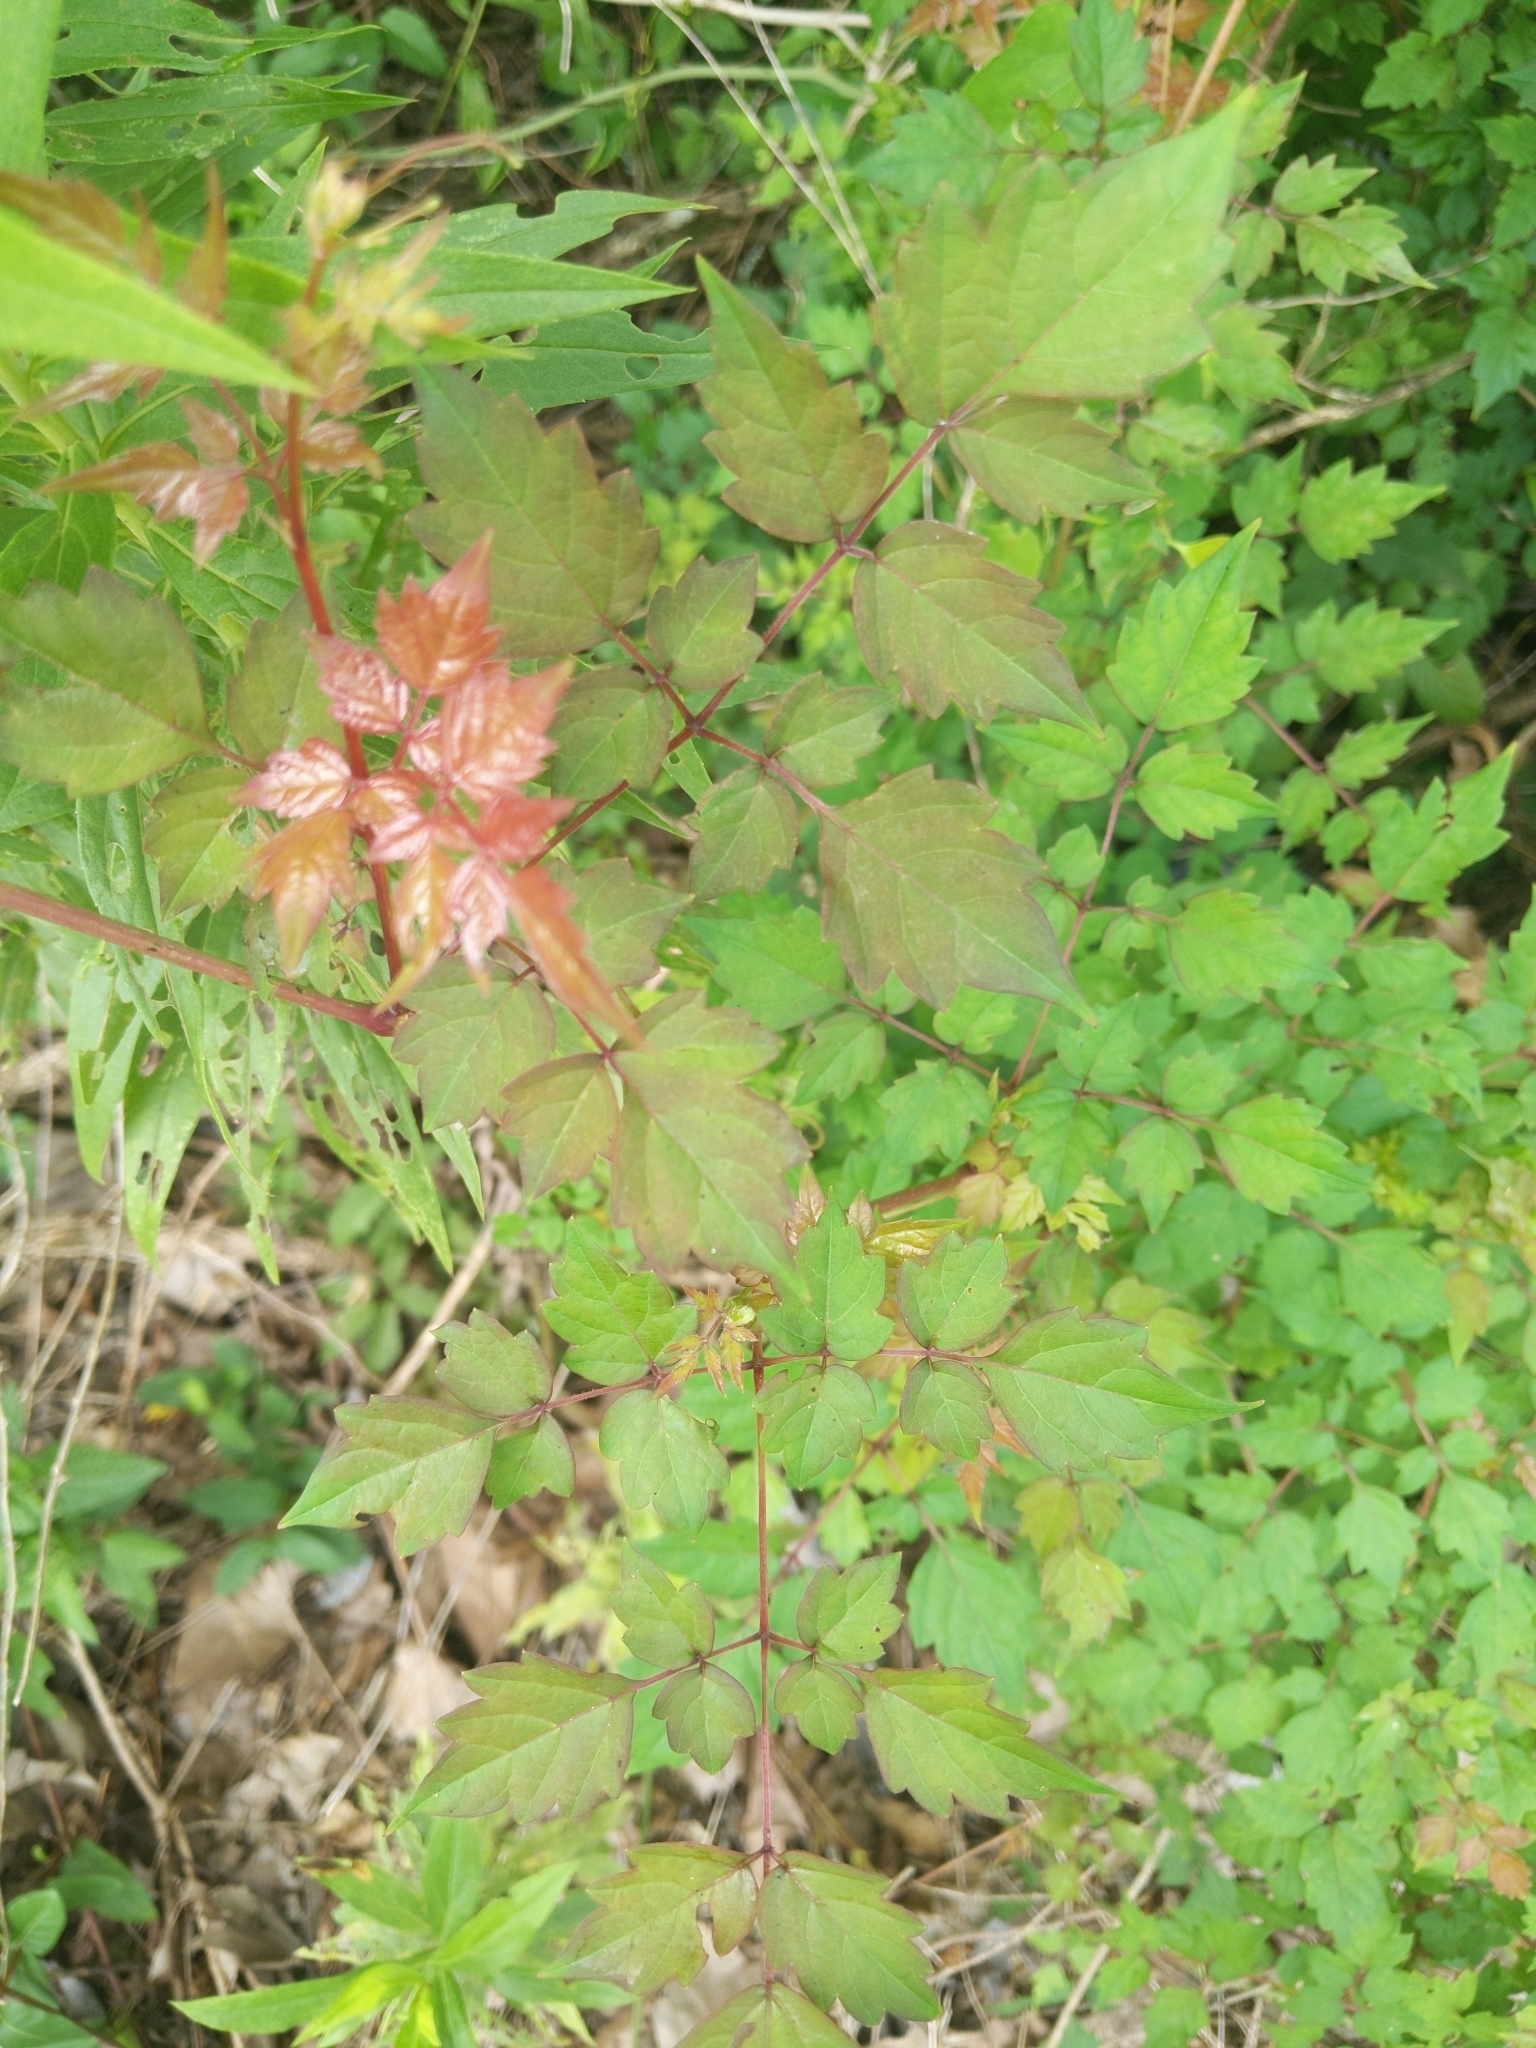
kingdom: Plantae
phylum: Tracheophyta
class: Magnoliopsida
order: Vitales
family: Vitaceae
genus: Nekemias
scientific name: Nekemias arborea
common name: Peppervine
